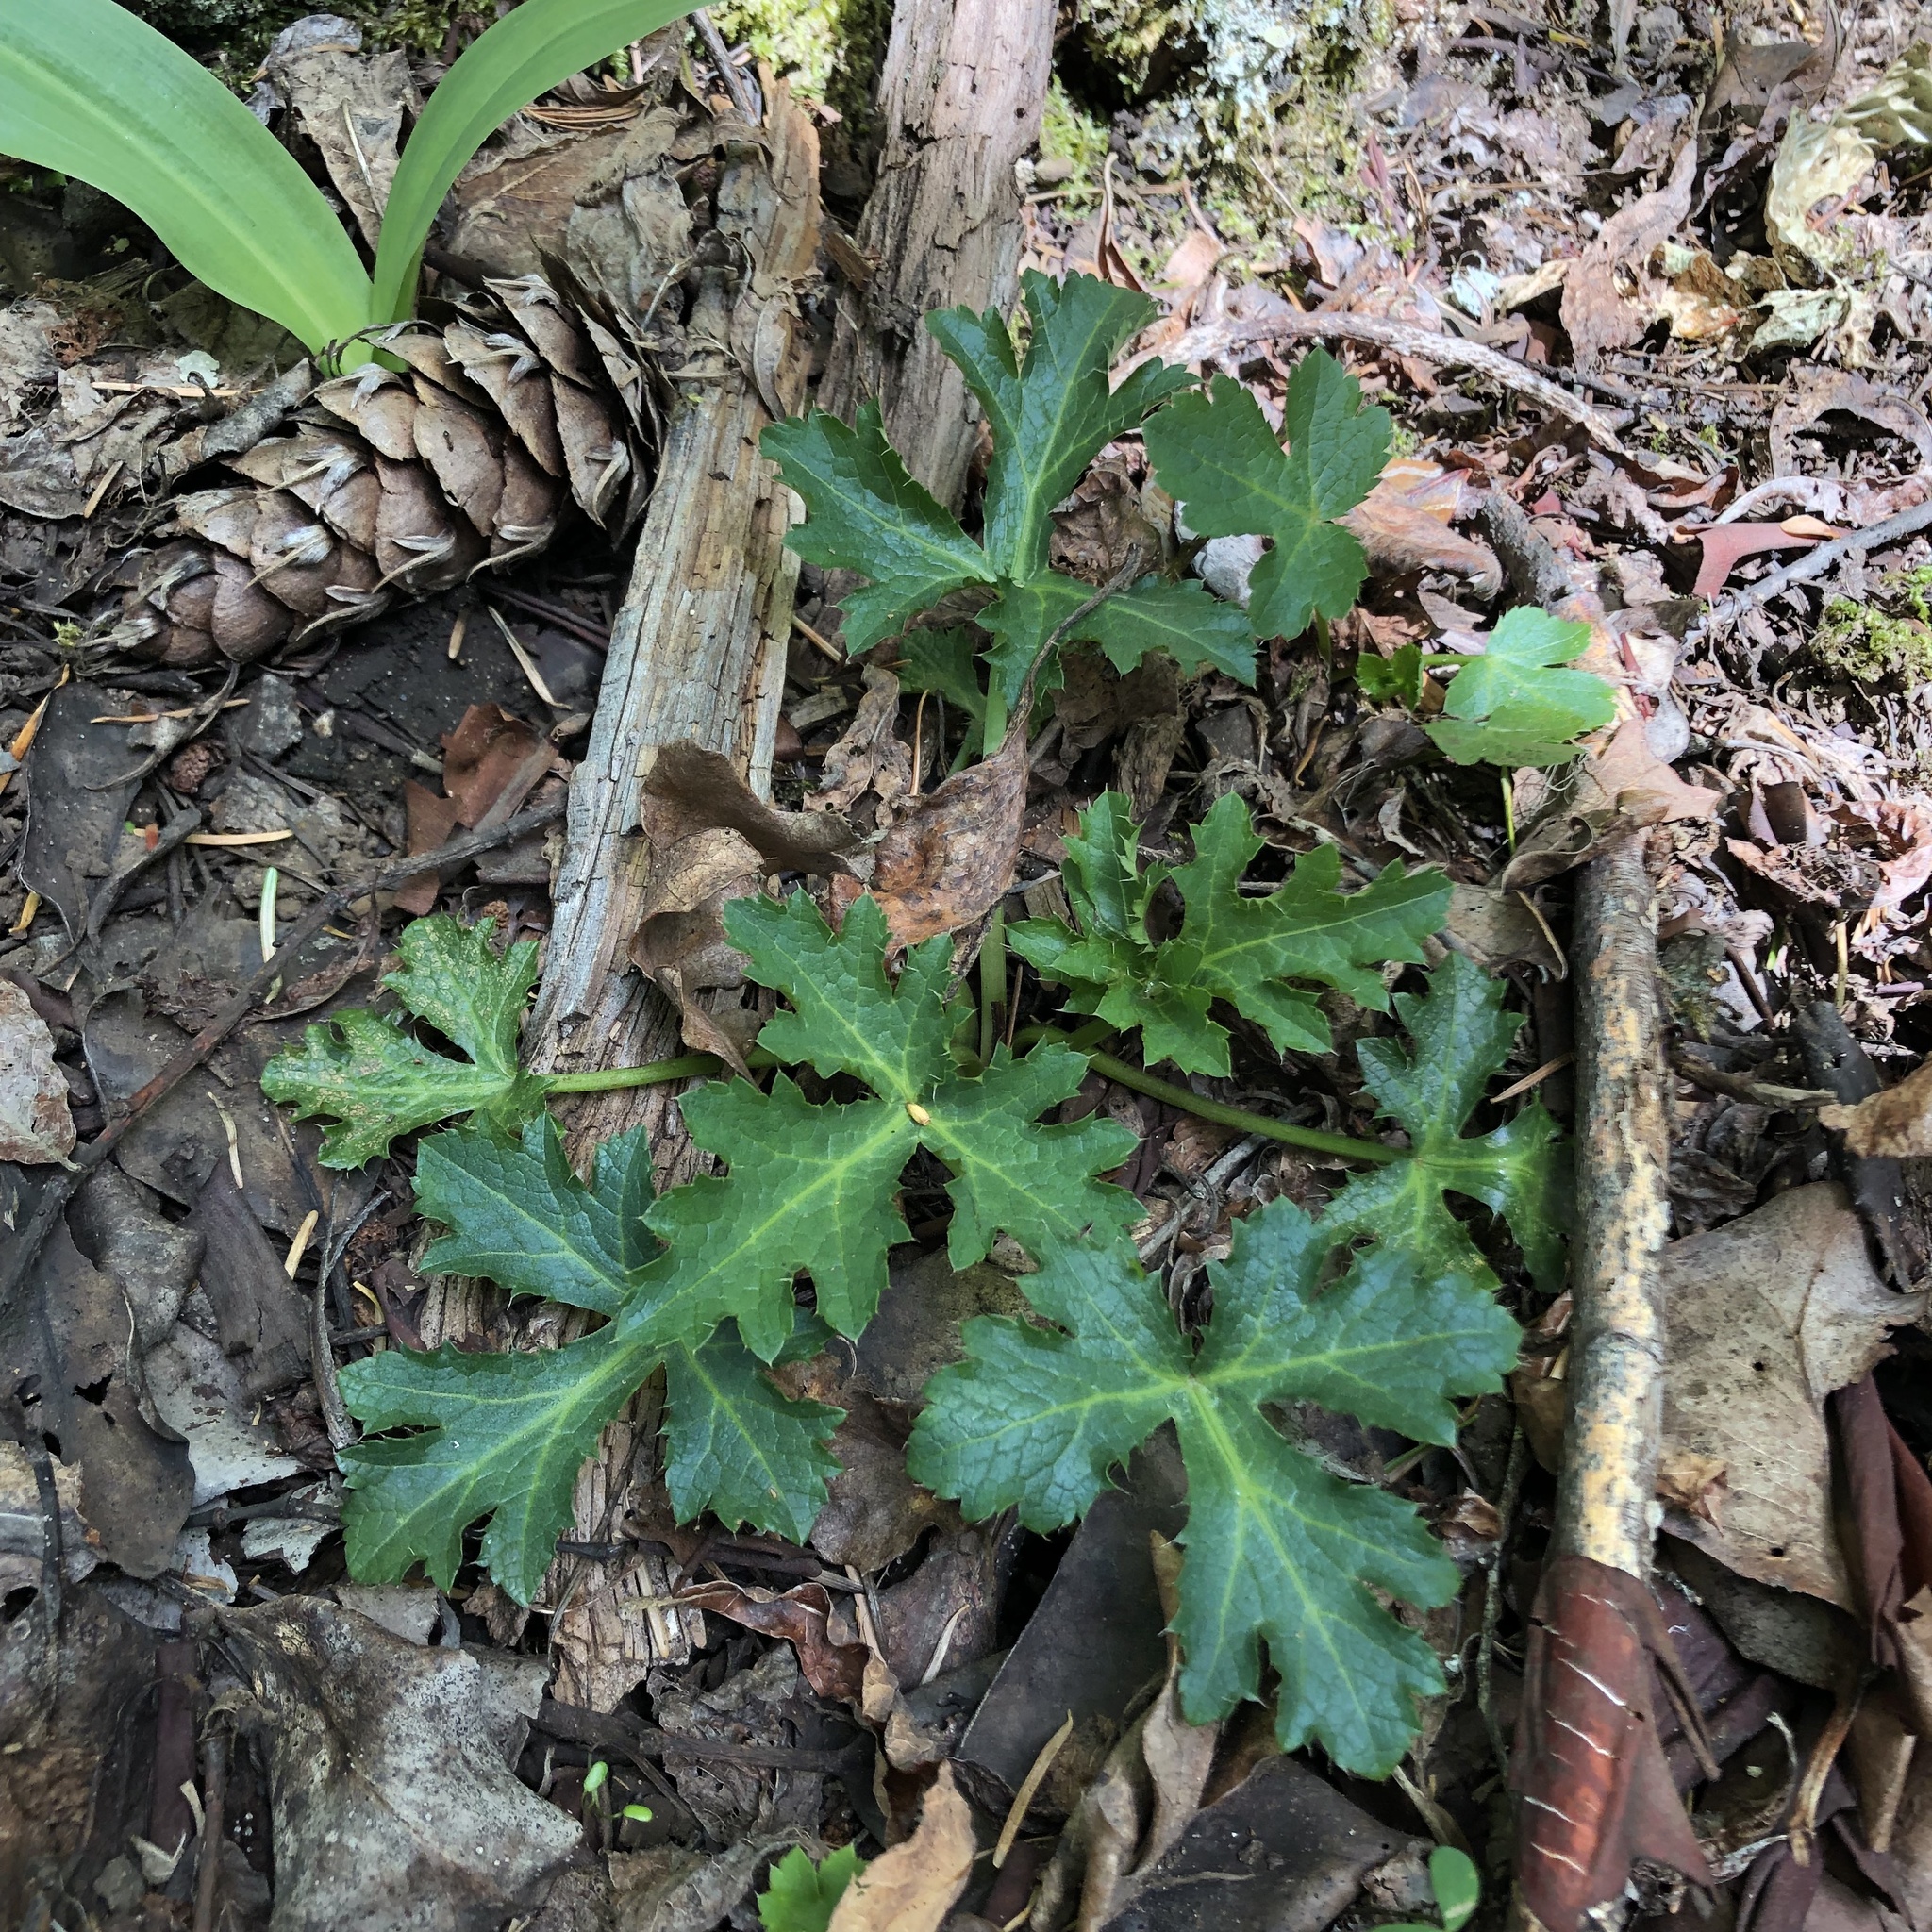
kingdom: Plantae
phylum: Tracheophyta
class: Magnoliopsida
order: Apiales
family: Apiaceae
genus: Sanicula
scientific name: Sanicula crassicaulis
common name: Western snakeroot
